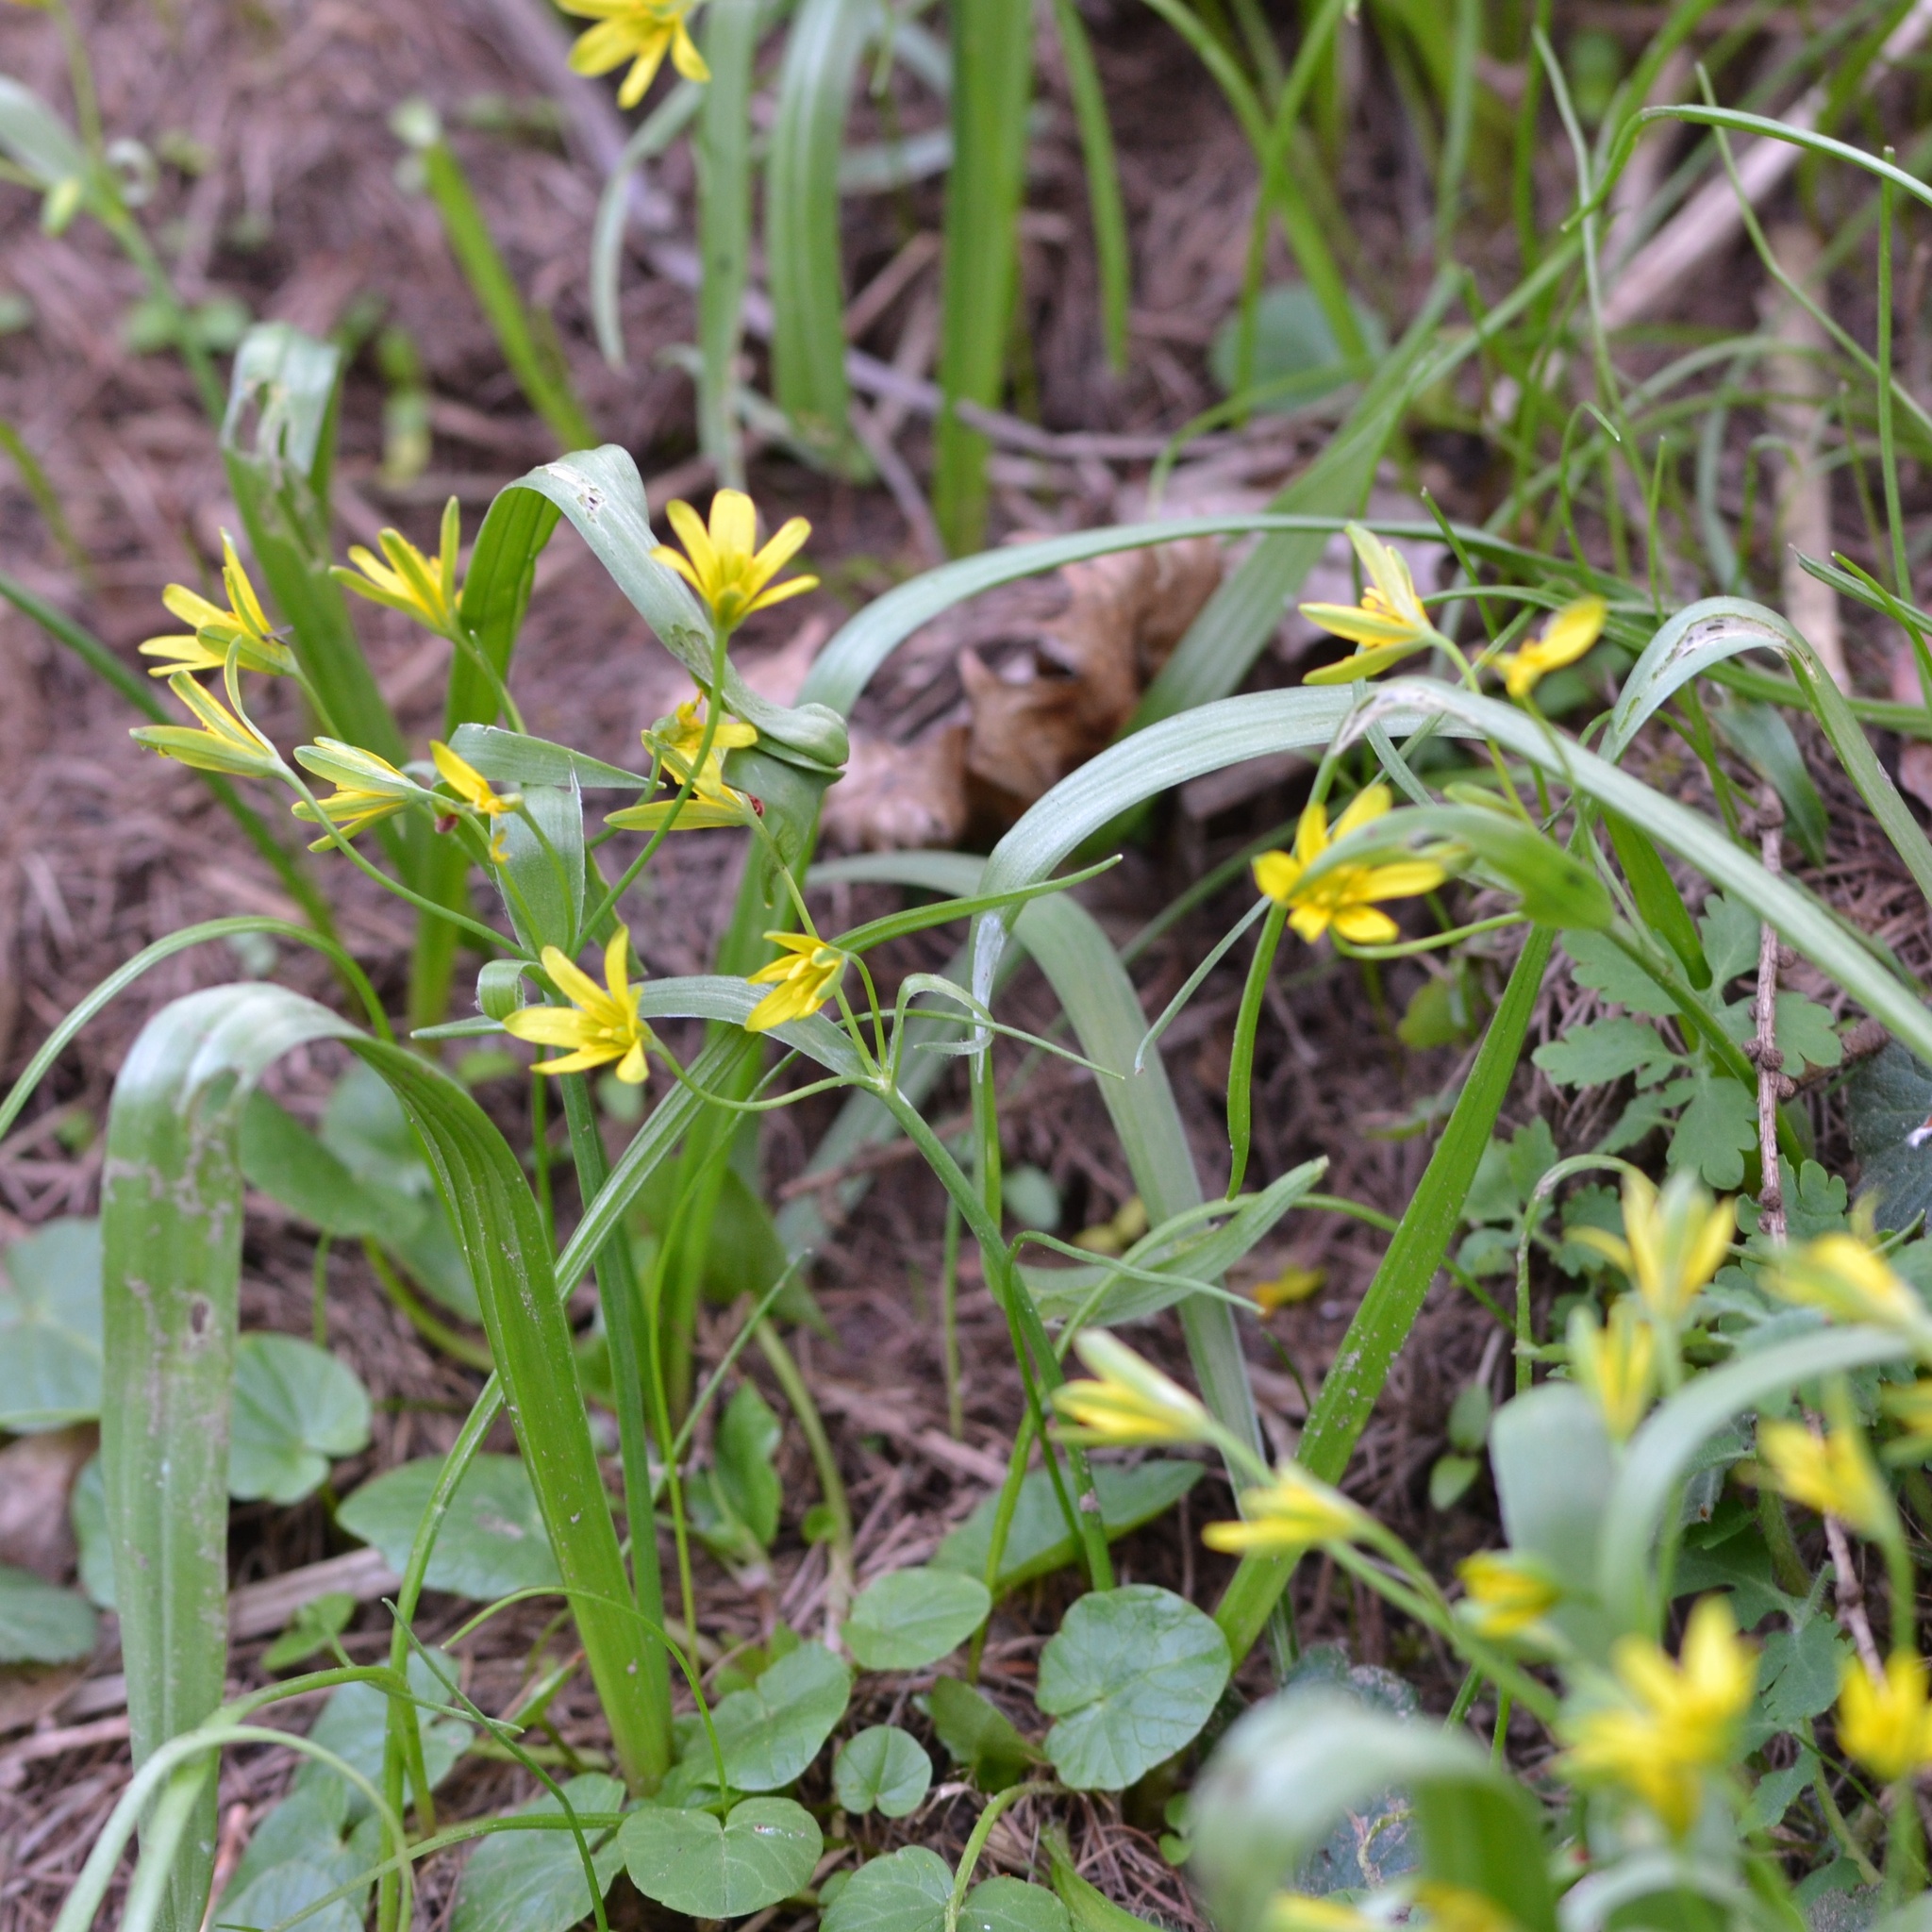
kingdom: Plantae
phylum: Tracheophyta
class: Liliopsida
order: Liliales
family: Liliaceae
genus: Gagea
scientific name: Gagea lutea
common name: Yellow star-of-bethlehem
